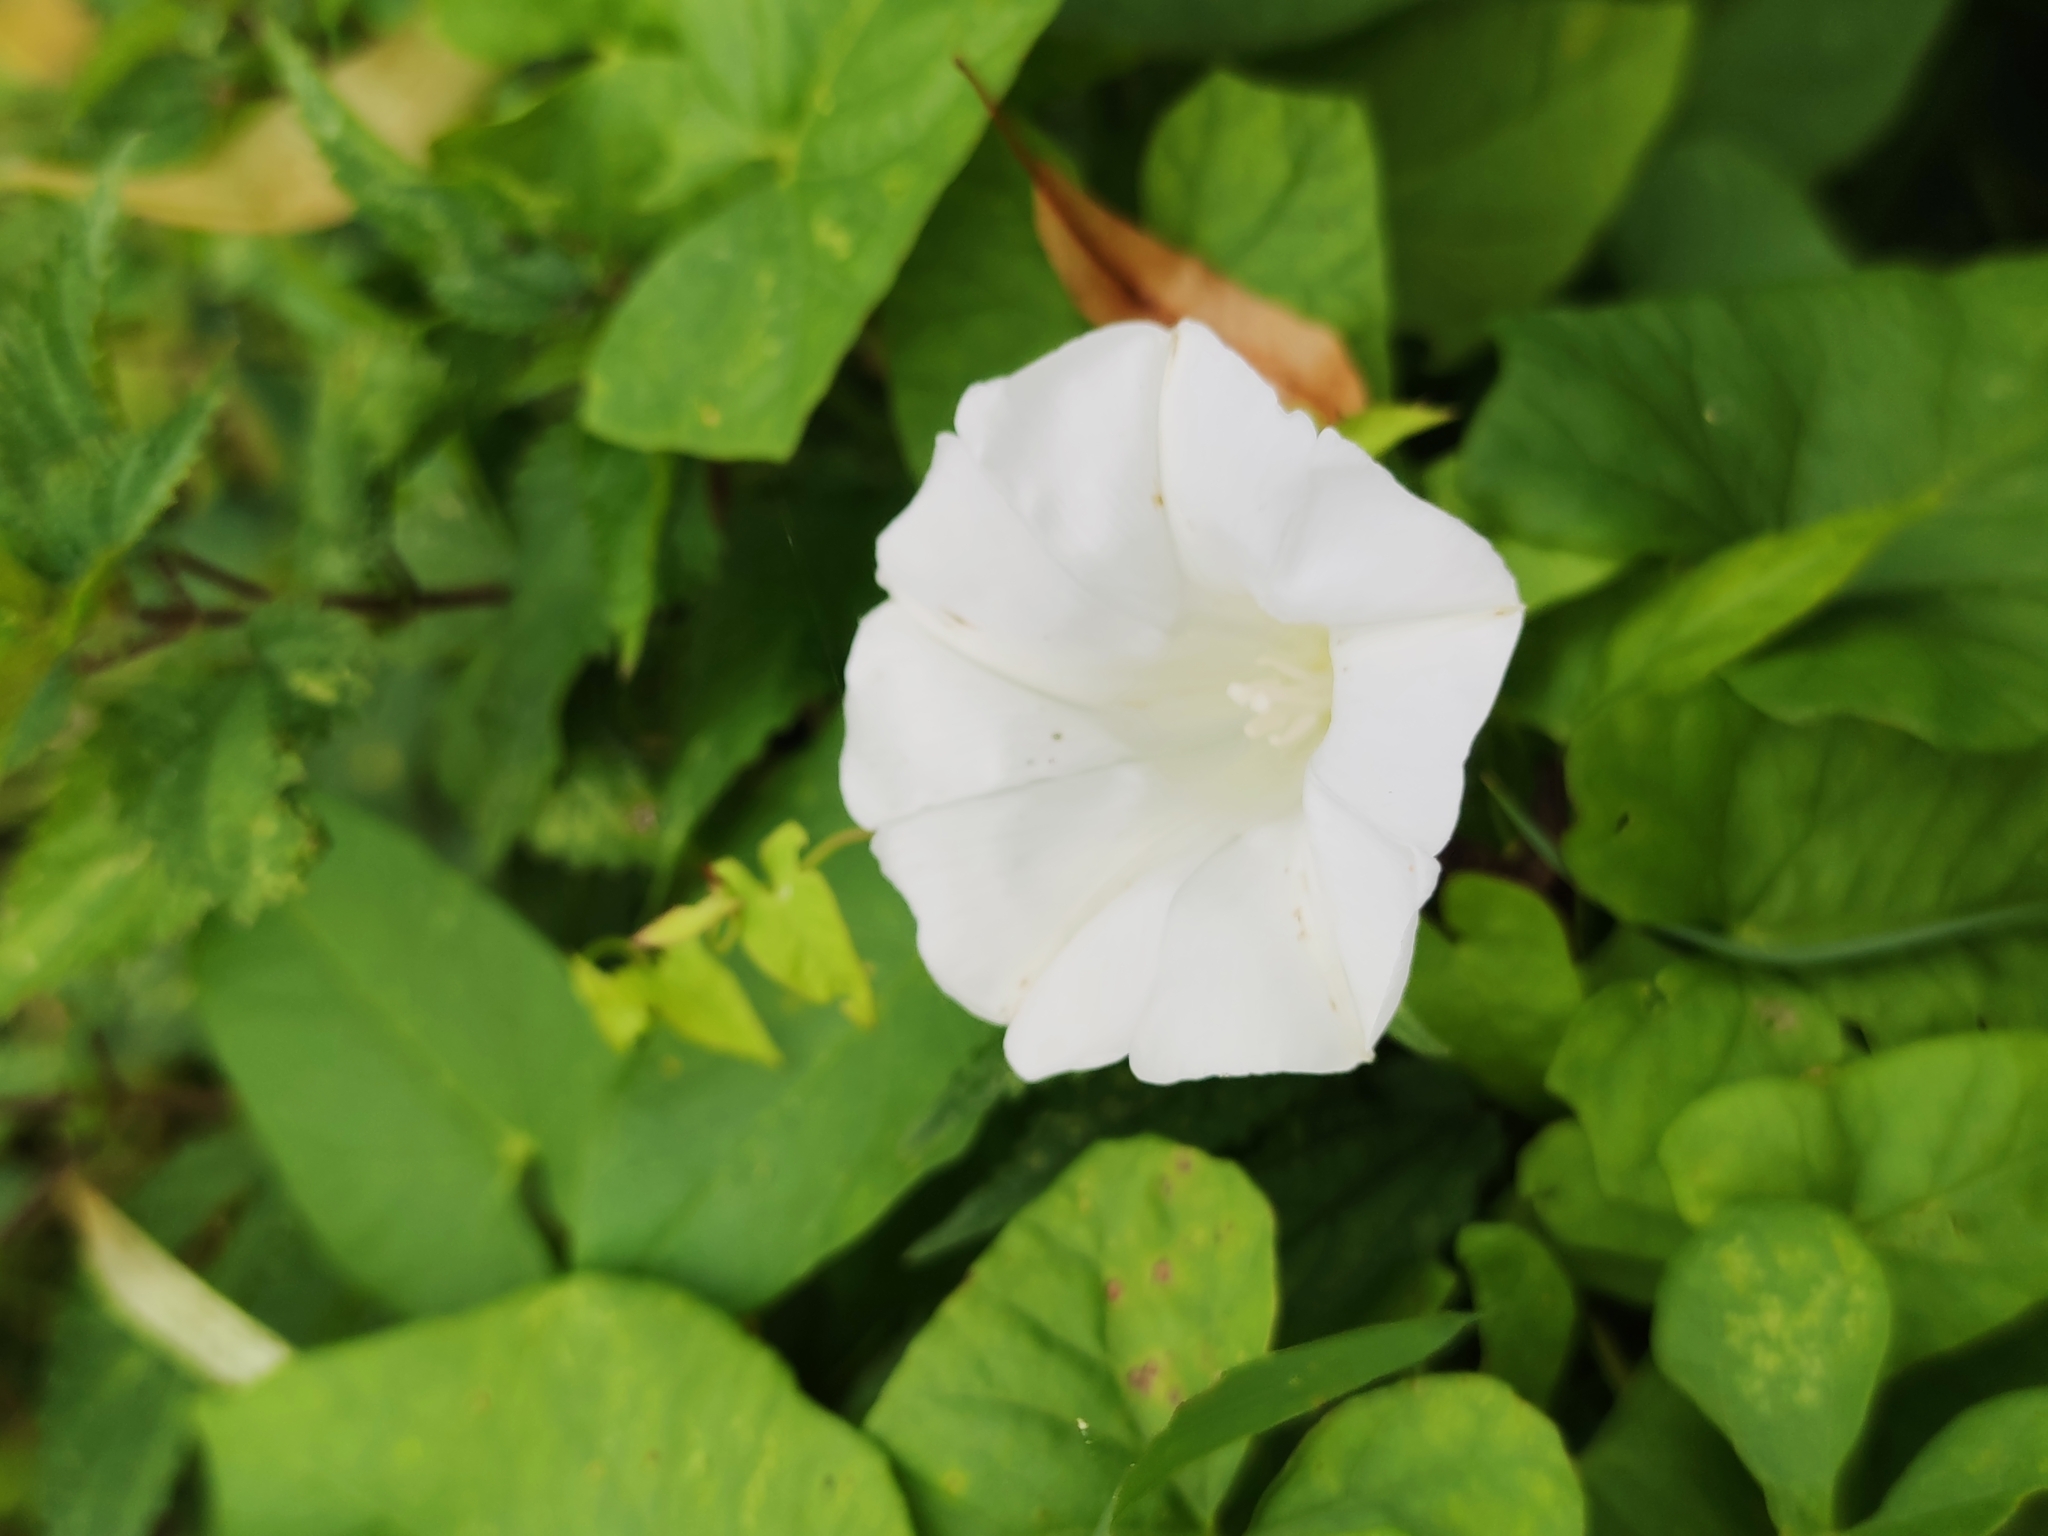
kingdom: Plantae
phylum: Tracheophyta
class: Magnoliopsida
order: Solanales
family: Convolvulaceae
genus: Calystegia
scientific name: Calystegia sepium
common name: Hedge bindweed
